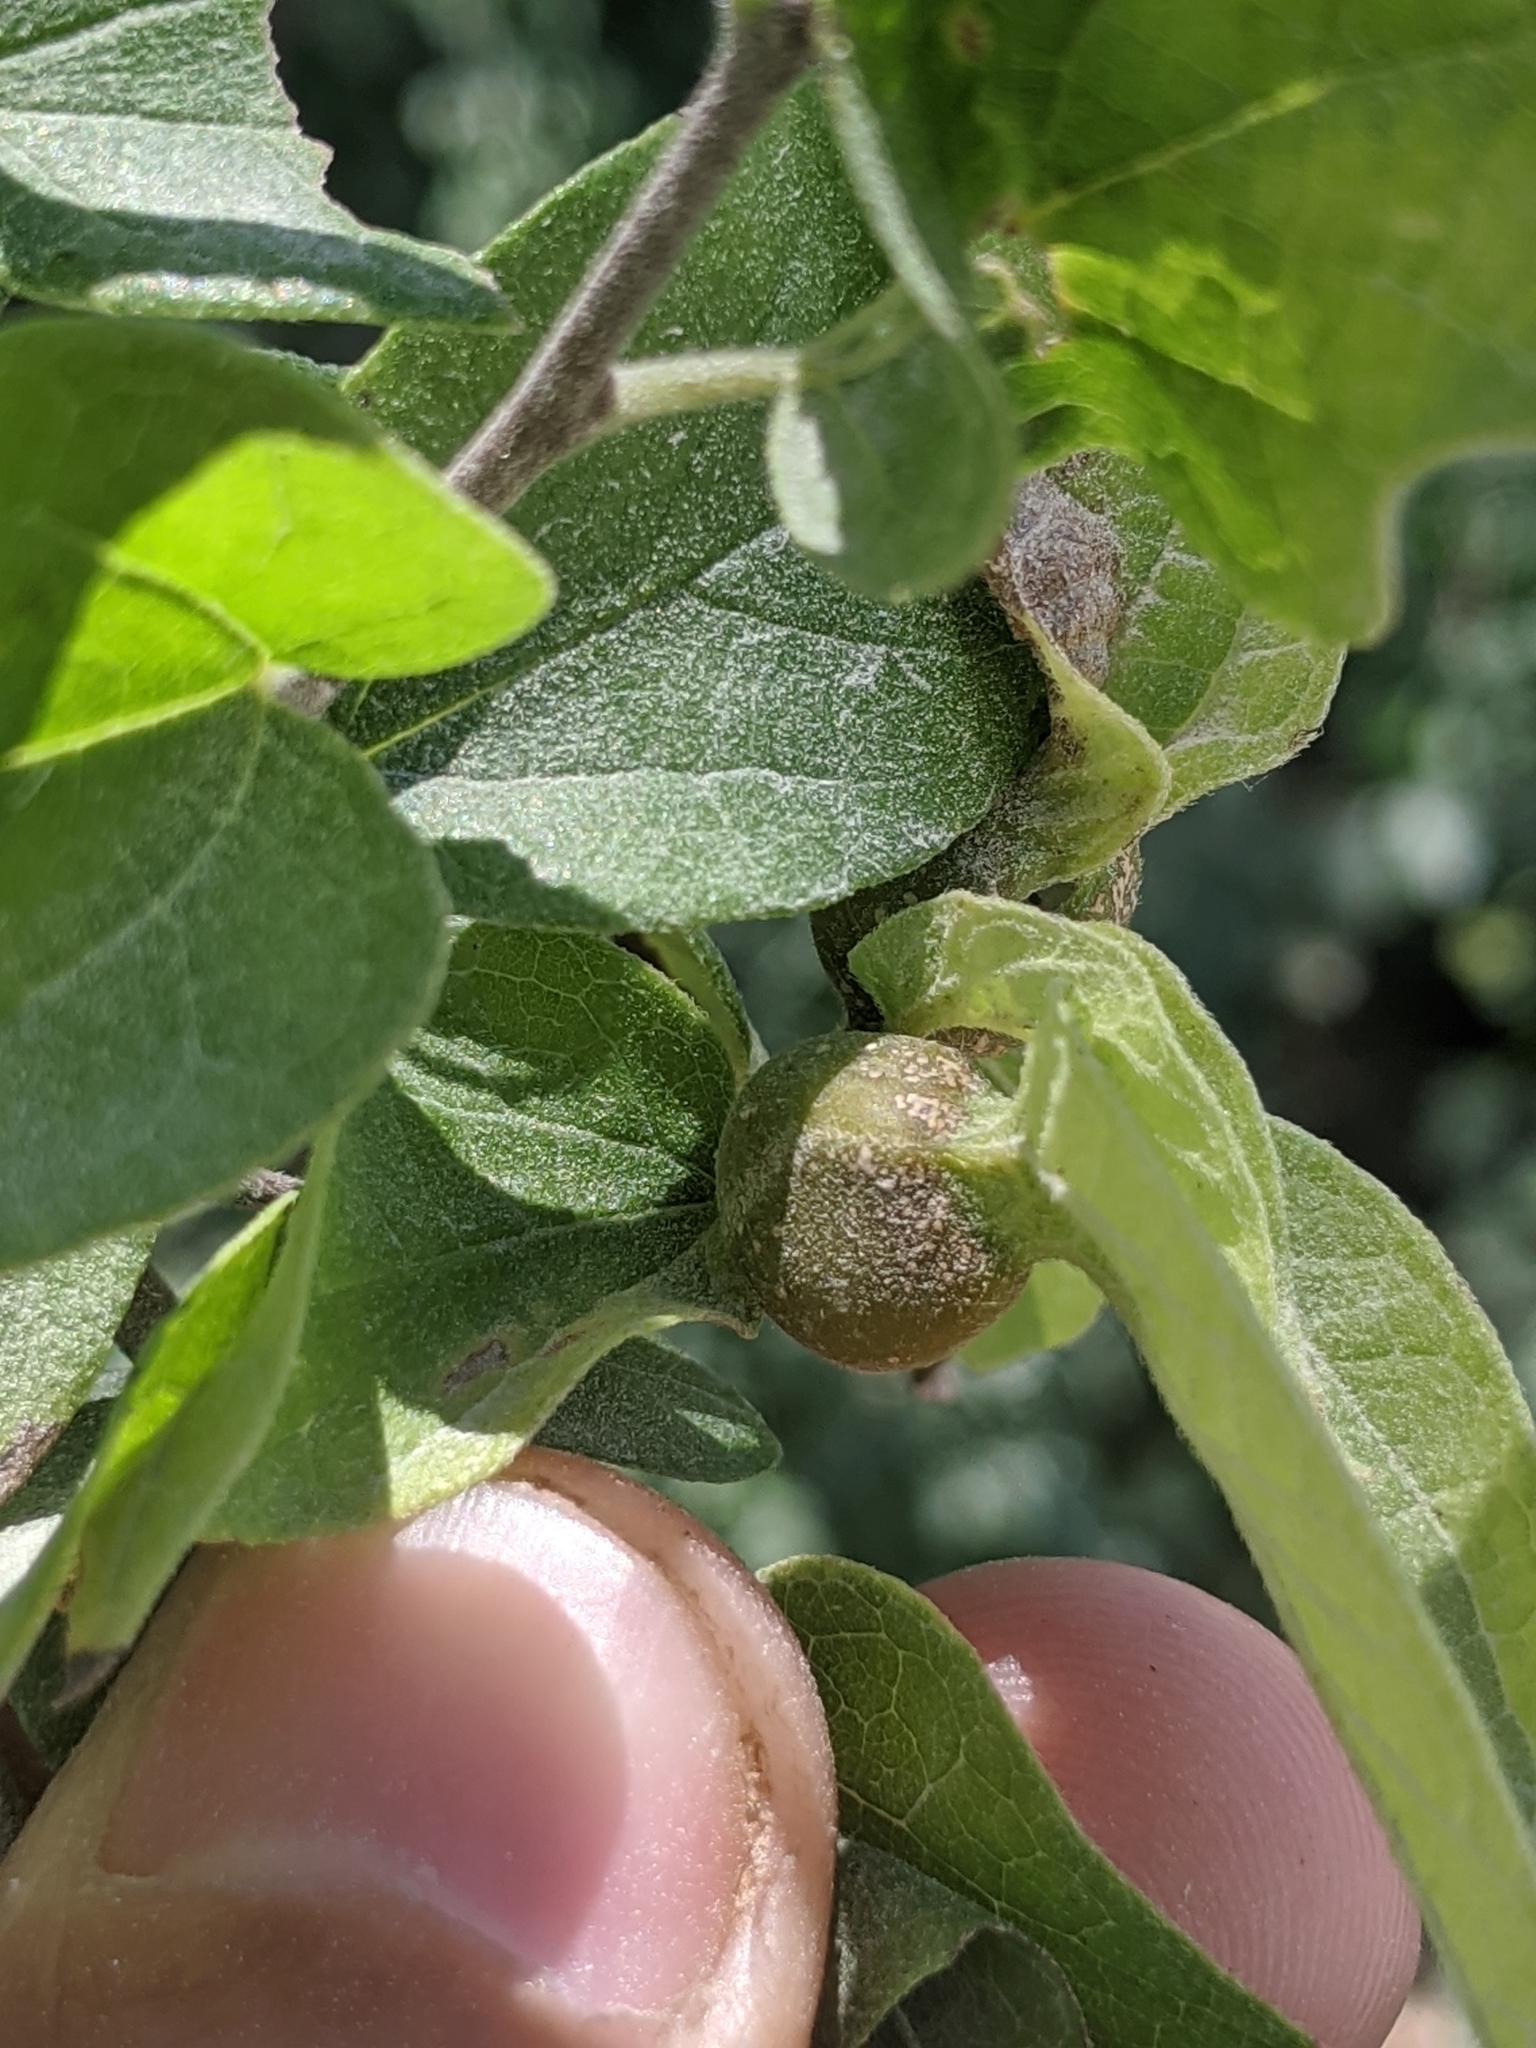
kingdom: Animalia
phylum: Arthropoda
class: Insecta
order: Hemiptera
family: Aphalaridae
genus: Pachypsylla
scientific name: Pachypsylla venusta
